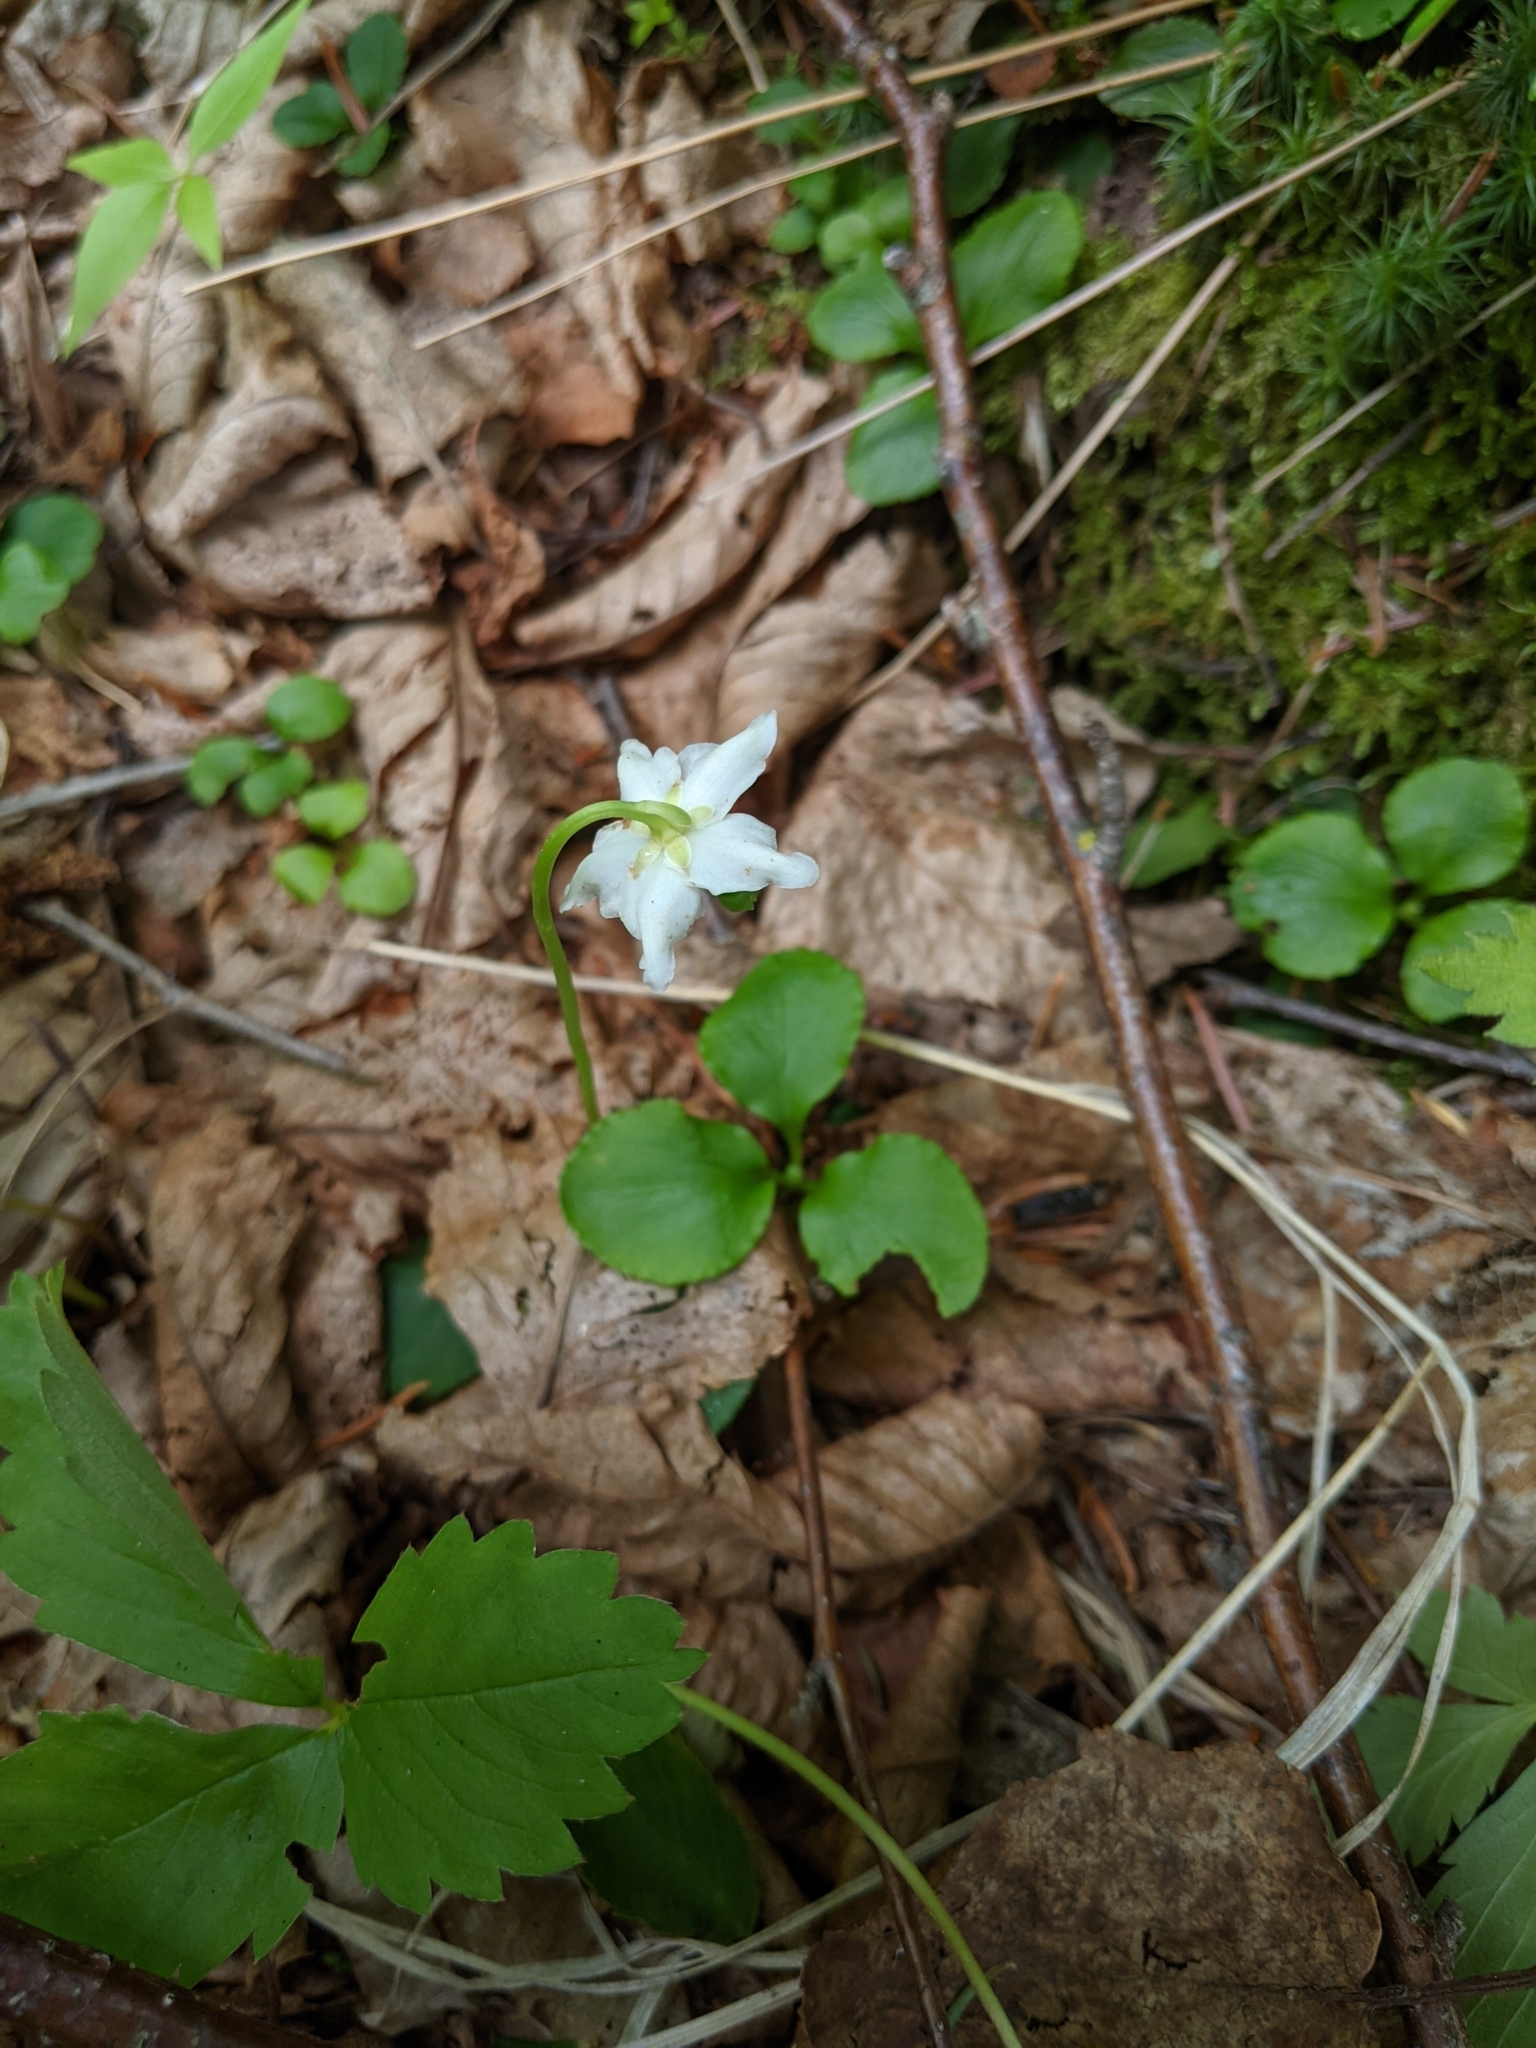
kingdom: Plantae
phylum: Tracheophyta
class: Magnoliopsida
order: Ericales
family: Ericaceae
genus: Moneses
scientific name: Moneses uniflora
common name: One-flowered wintergreen
